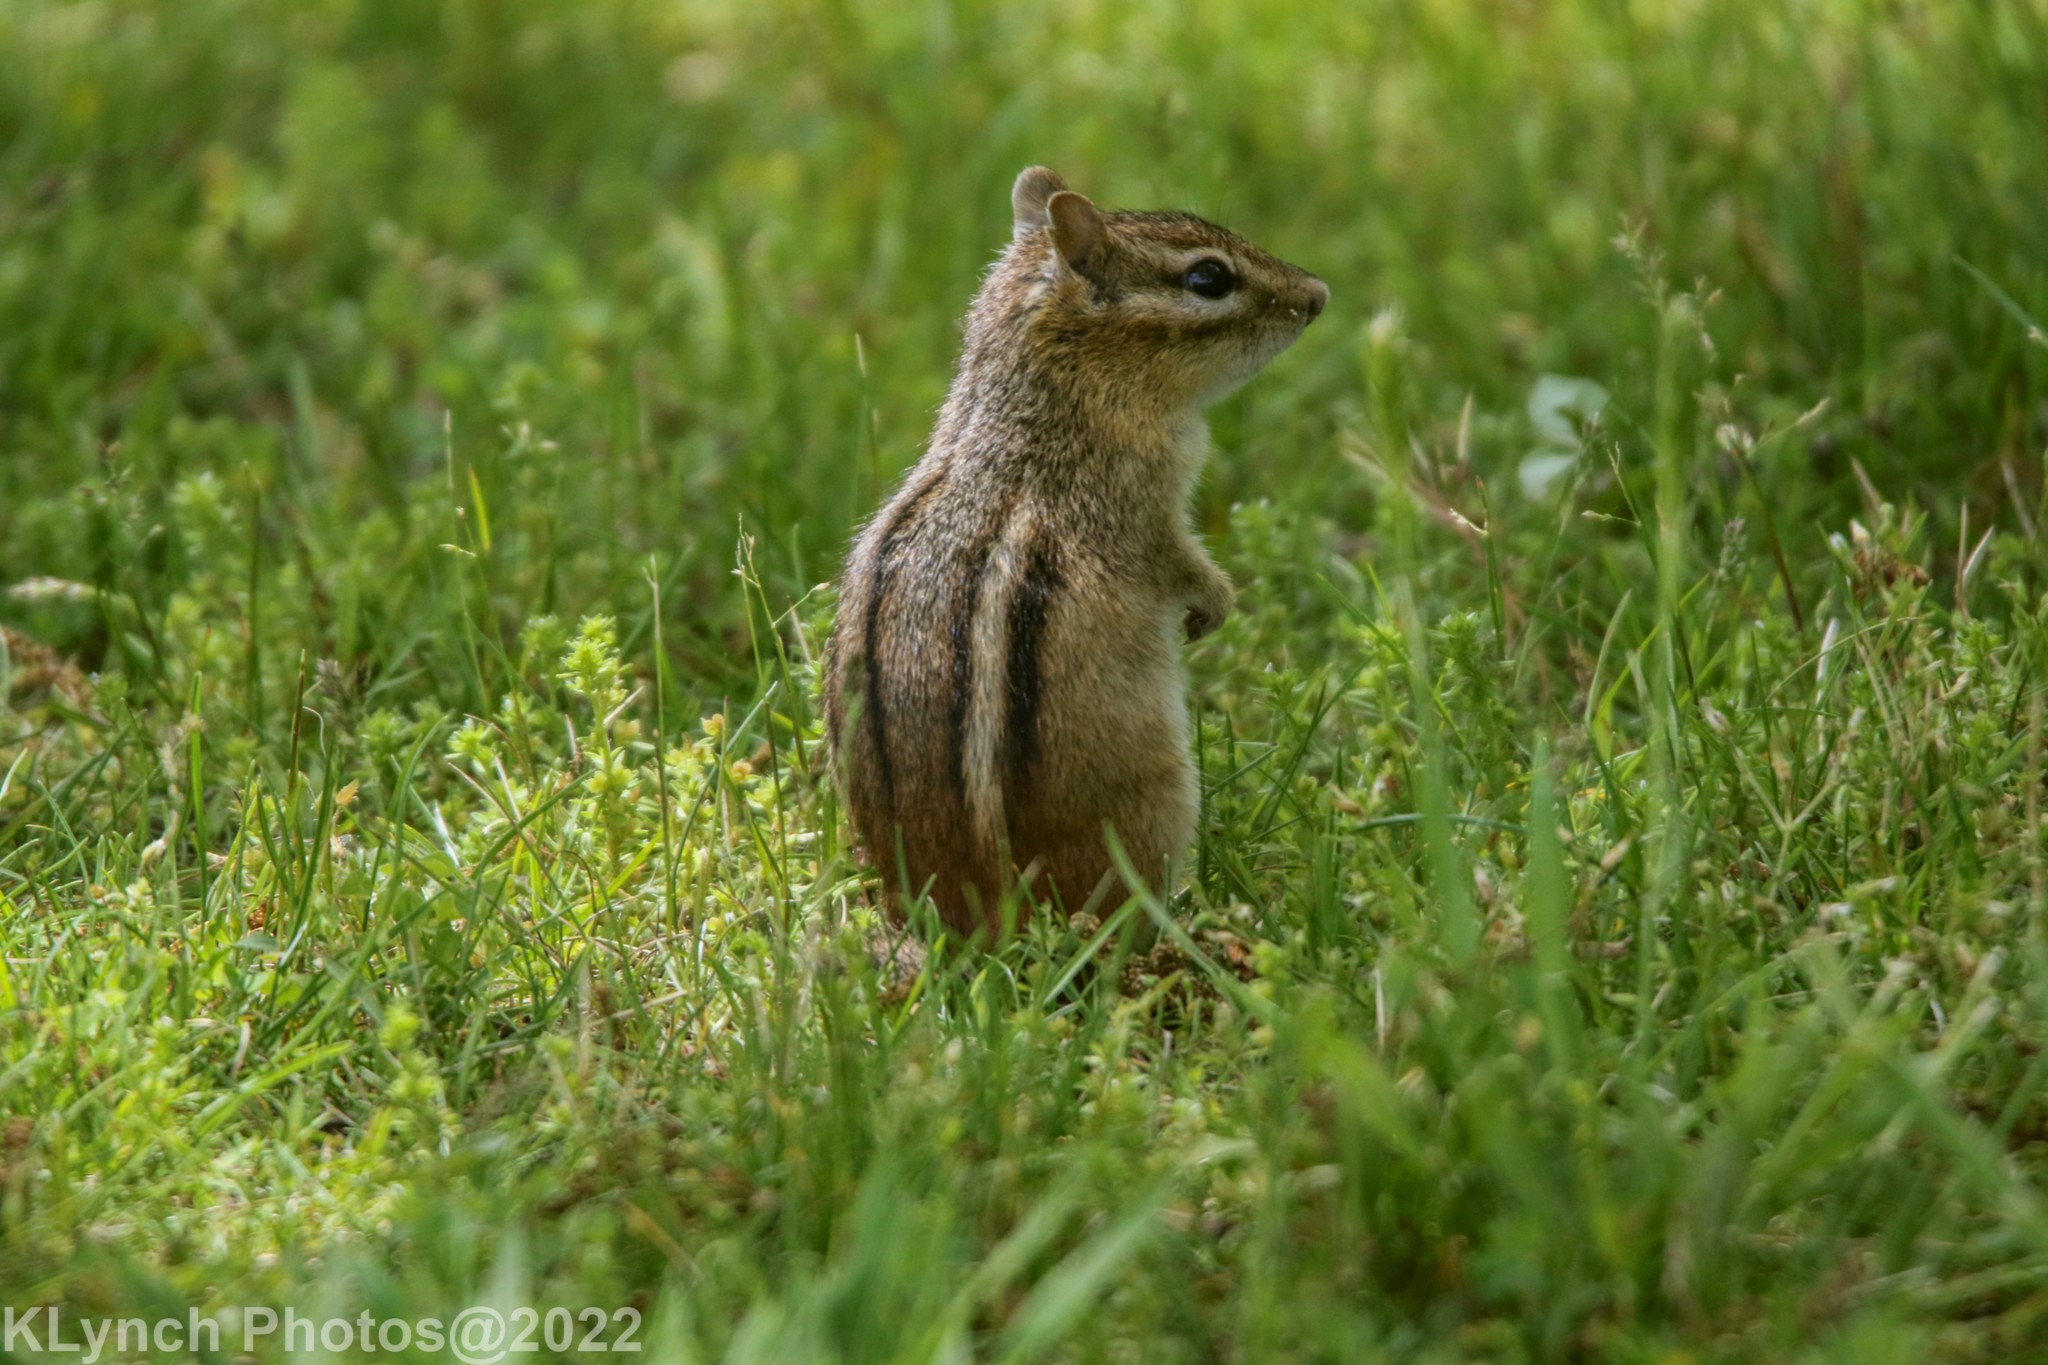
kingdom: Animalia
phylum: Chordata
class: Mammalia
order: Rodentia
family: Sciuridae
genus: Tamias
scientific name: Tamias striatus
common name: Eastern chipmunk
